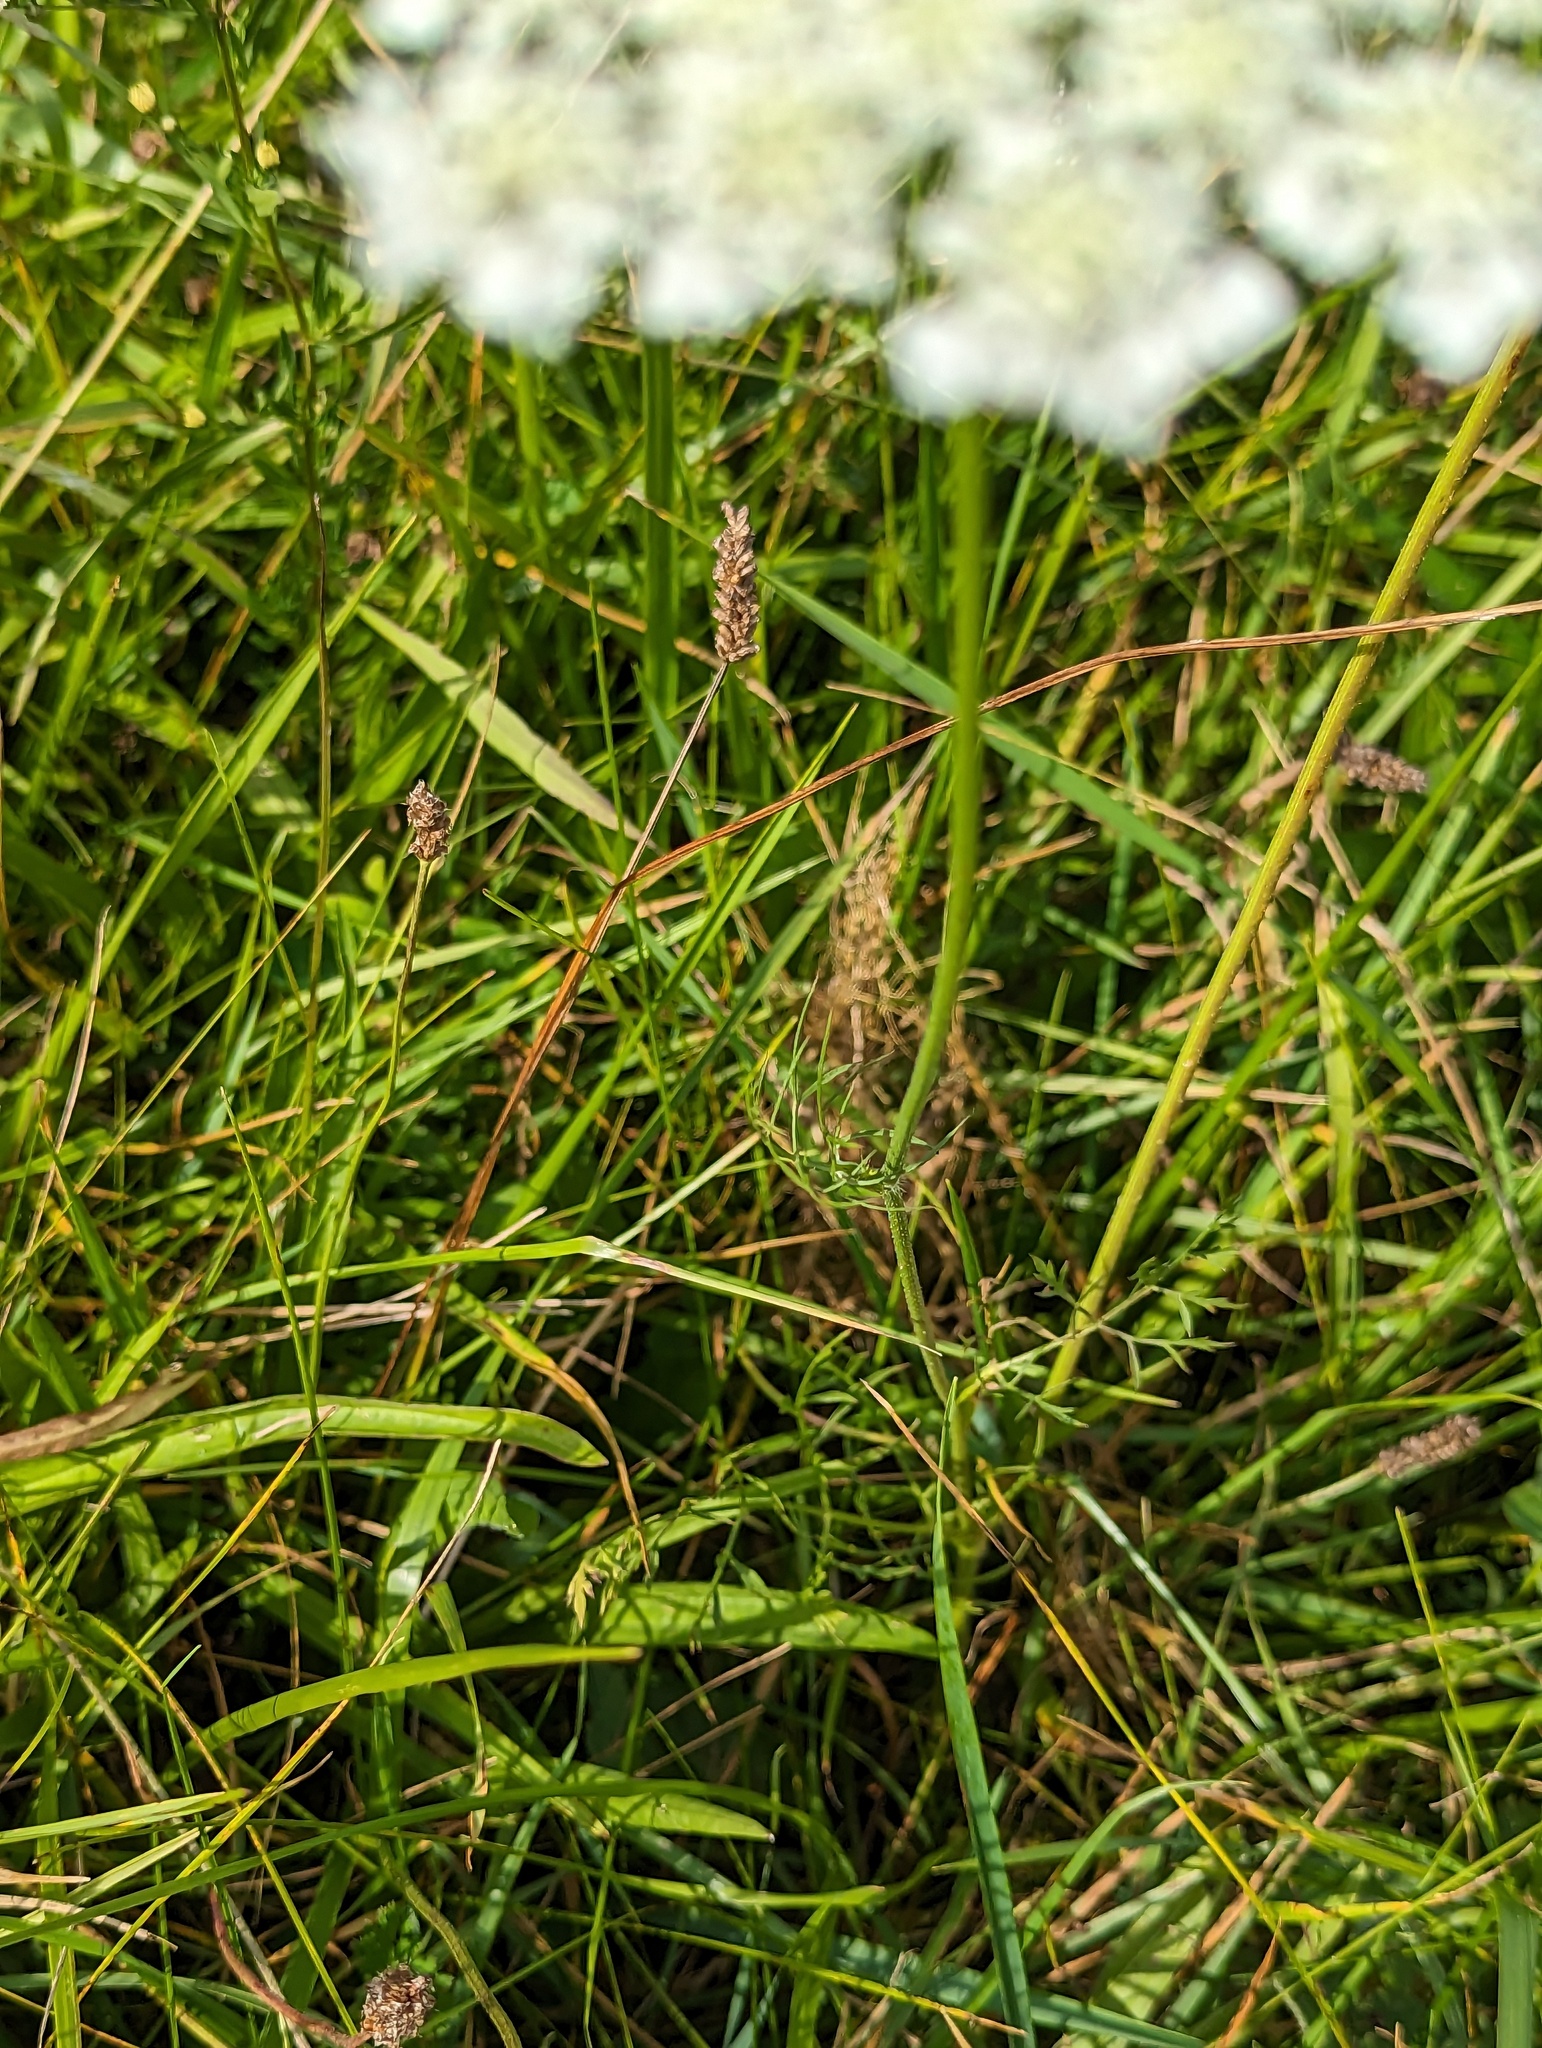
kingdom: Plantae
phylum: Tracheophyta
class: Magnoliopsida
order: Apiales
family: Apiaceae
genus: Daucus
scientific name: Daucus carota
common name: Wild carrot
